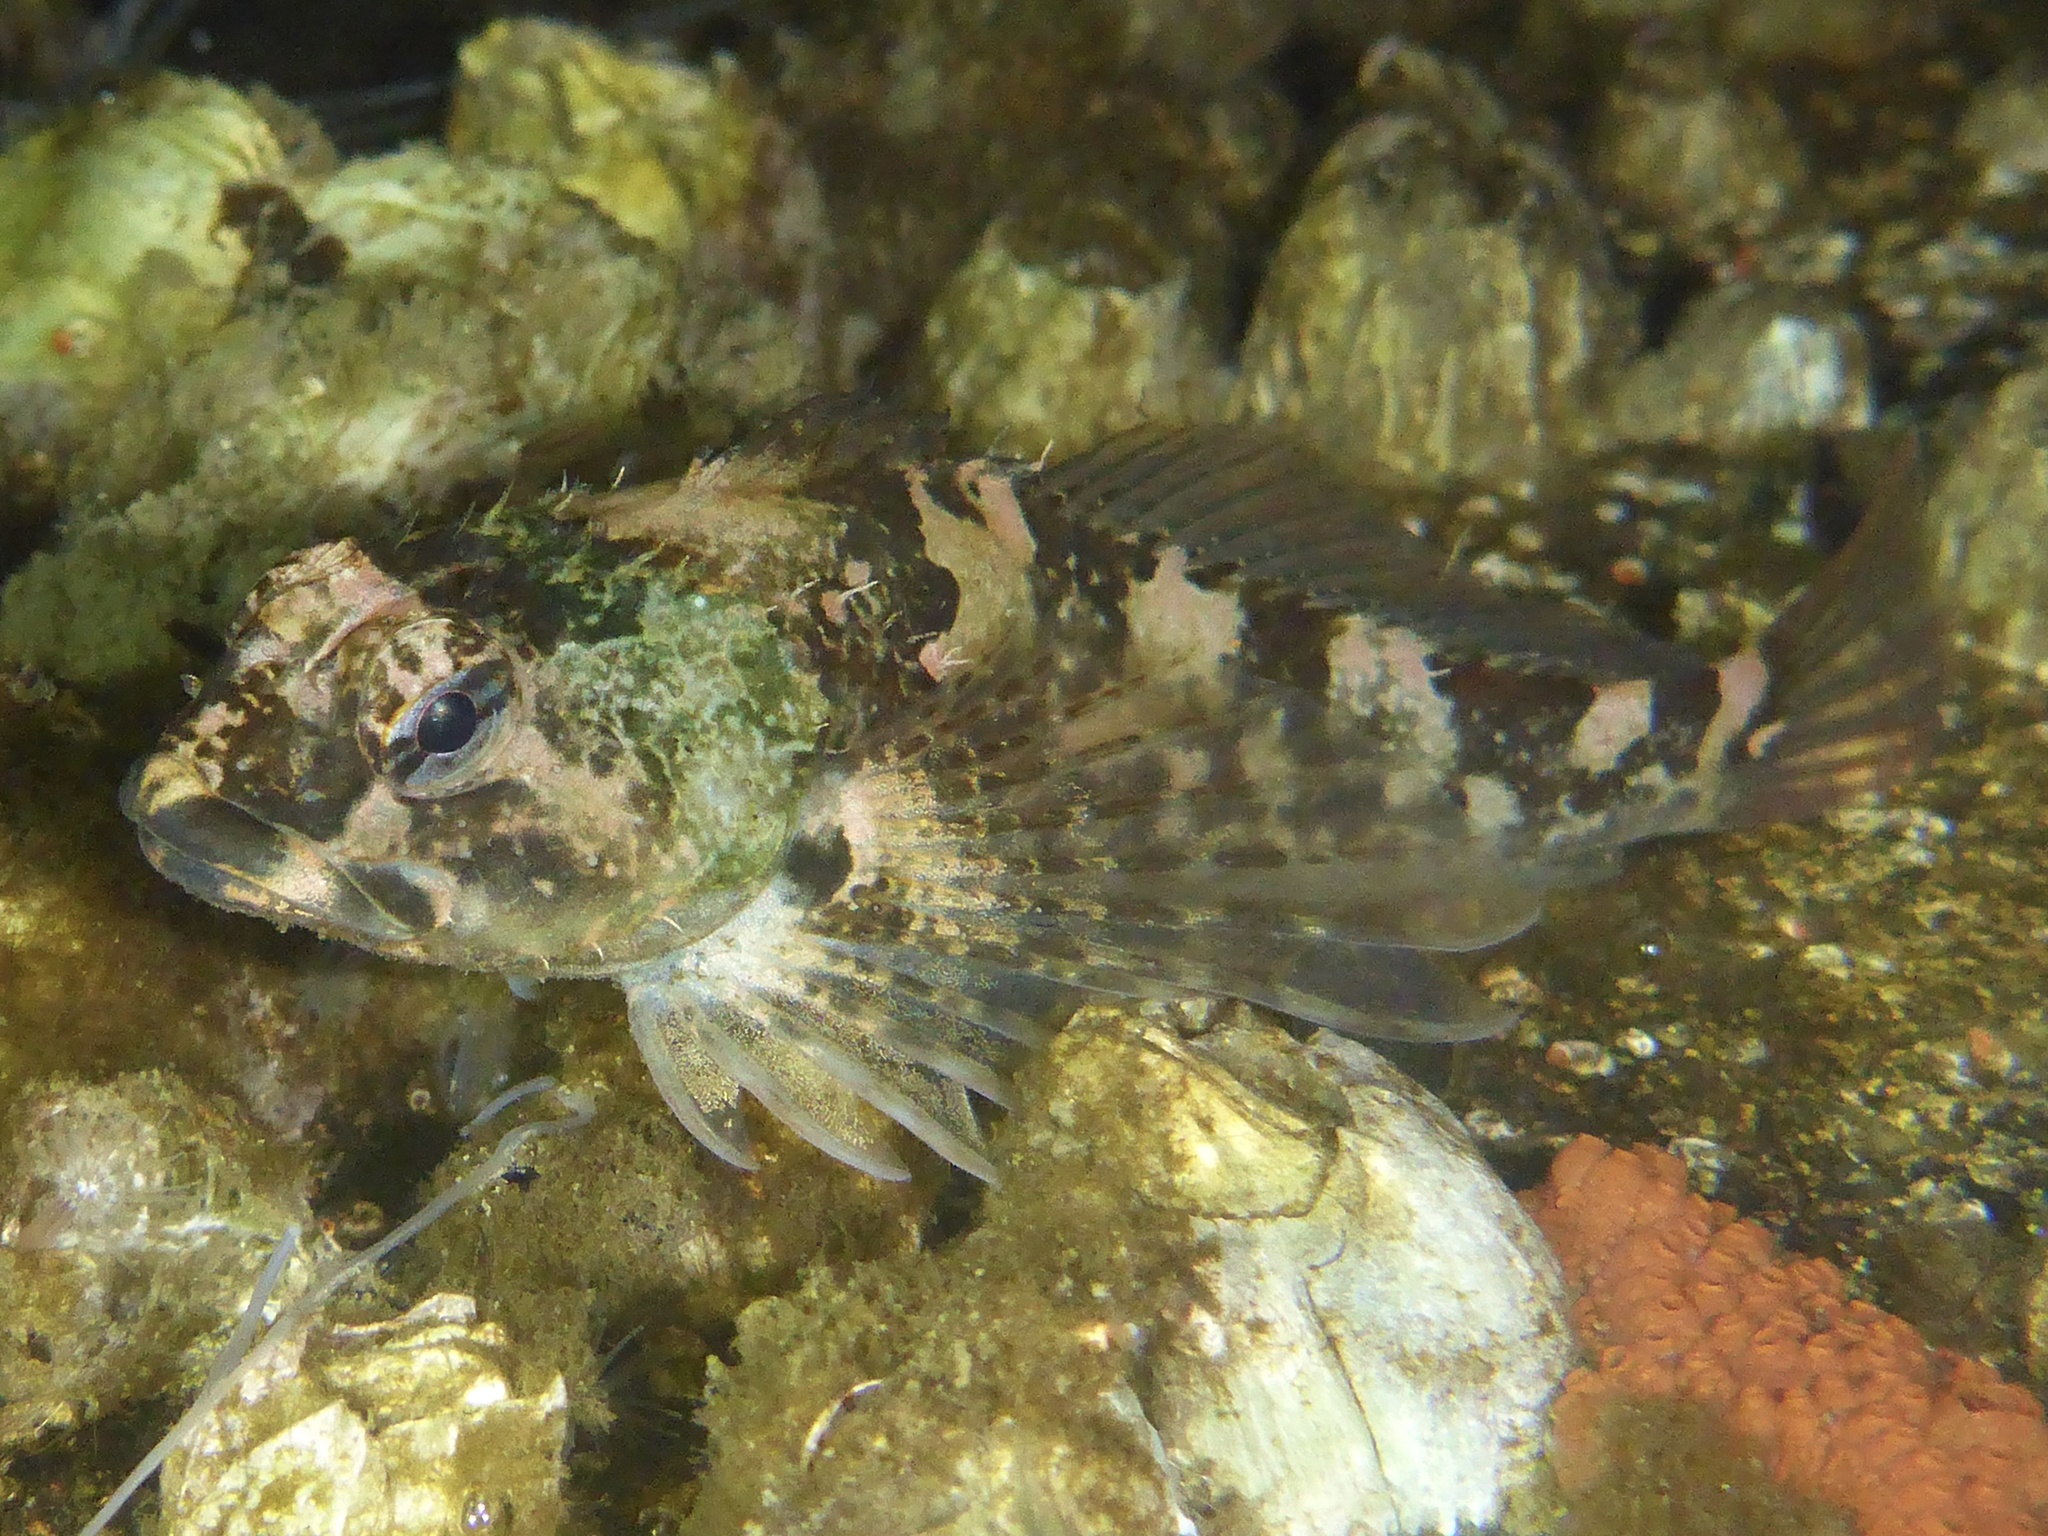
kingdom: Animalia
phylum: Chordata
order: Scorpaeniformes
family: Cottidae
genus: Oligocottus
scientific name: Oligocottus maculosus
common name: Tidepool sculpin
